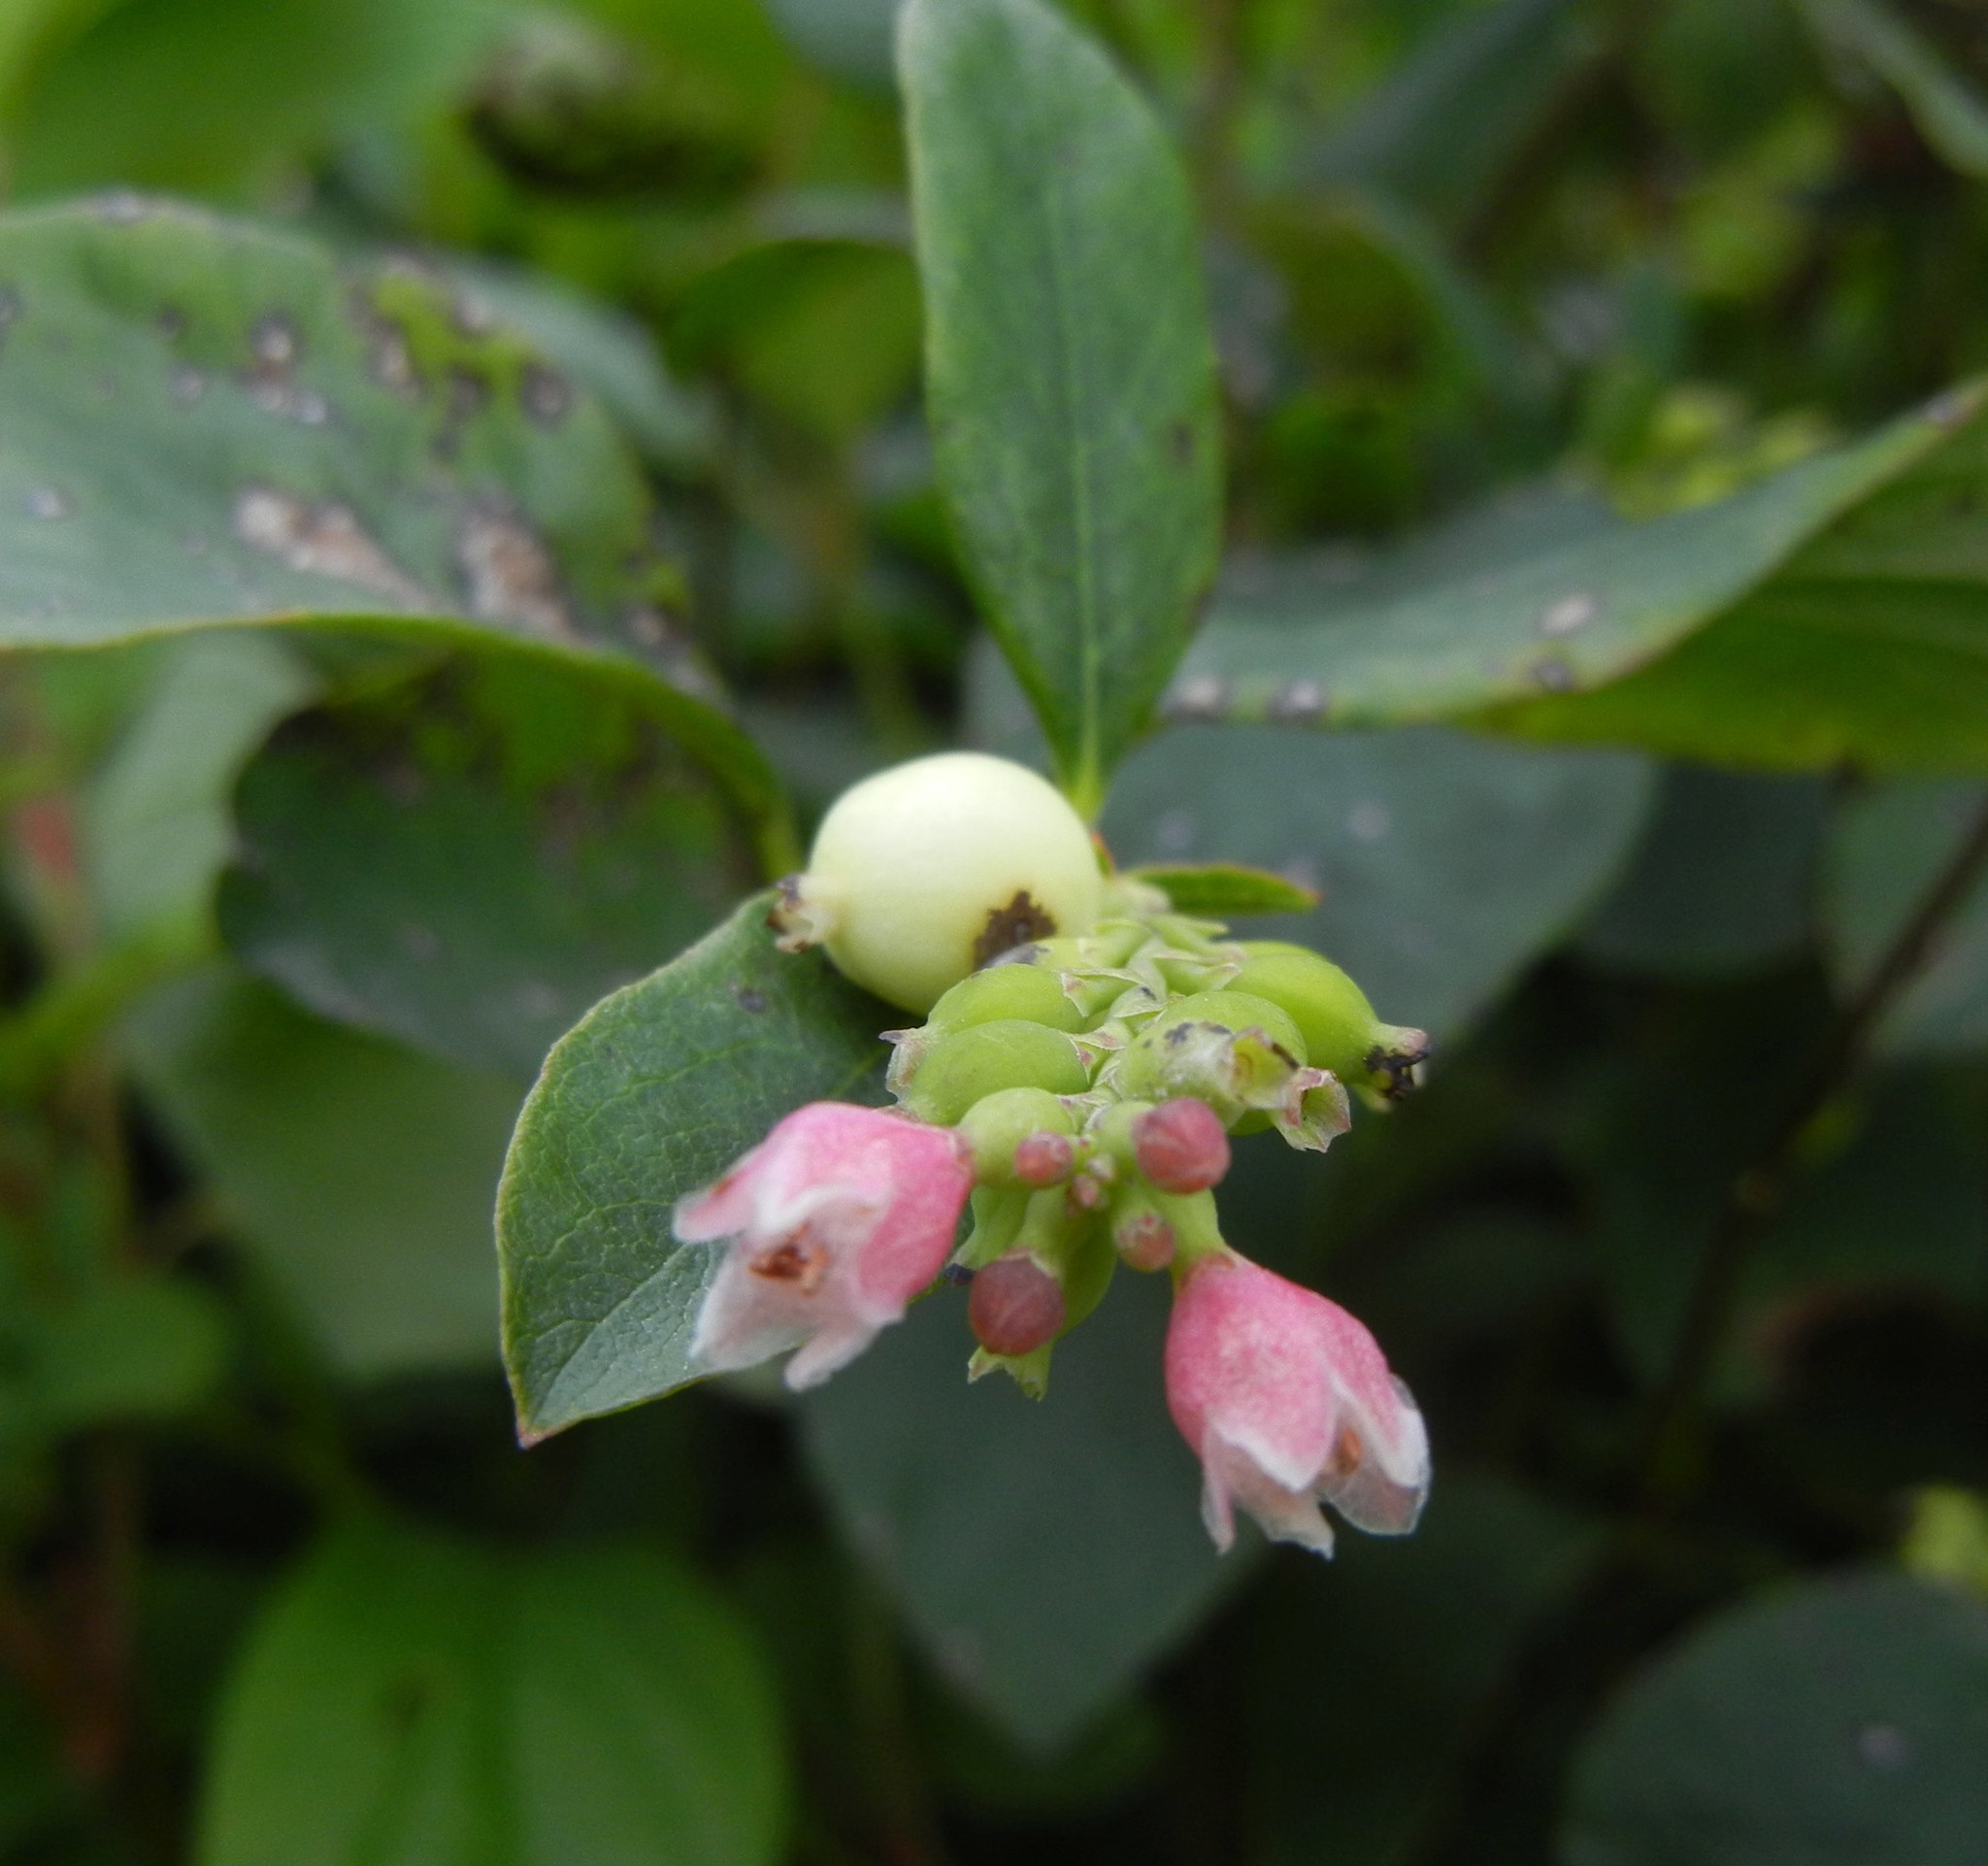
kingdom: Plantae
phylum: Tracheophyta
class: Magnoliopsida
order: Dipsacales
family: Caprifoliaceae
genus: Symphoricarpos
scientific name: Symphoricarpos albus
